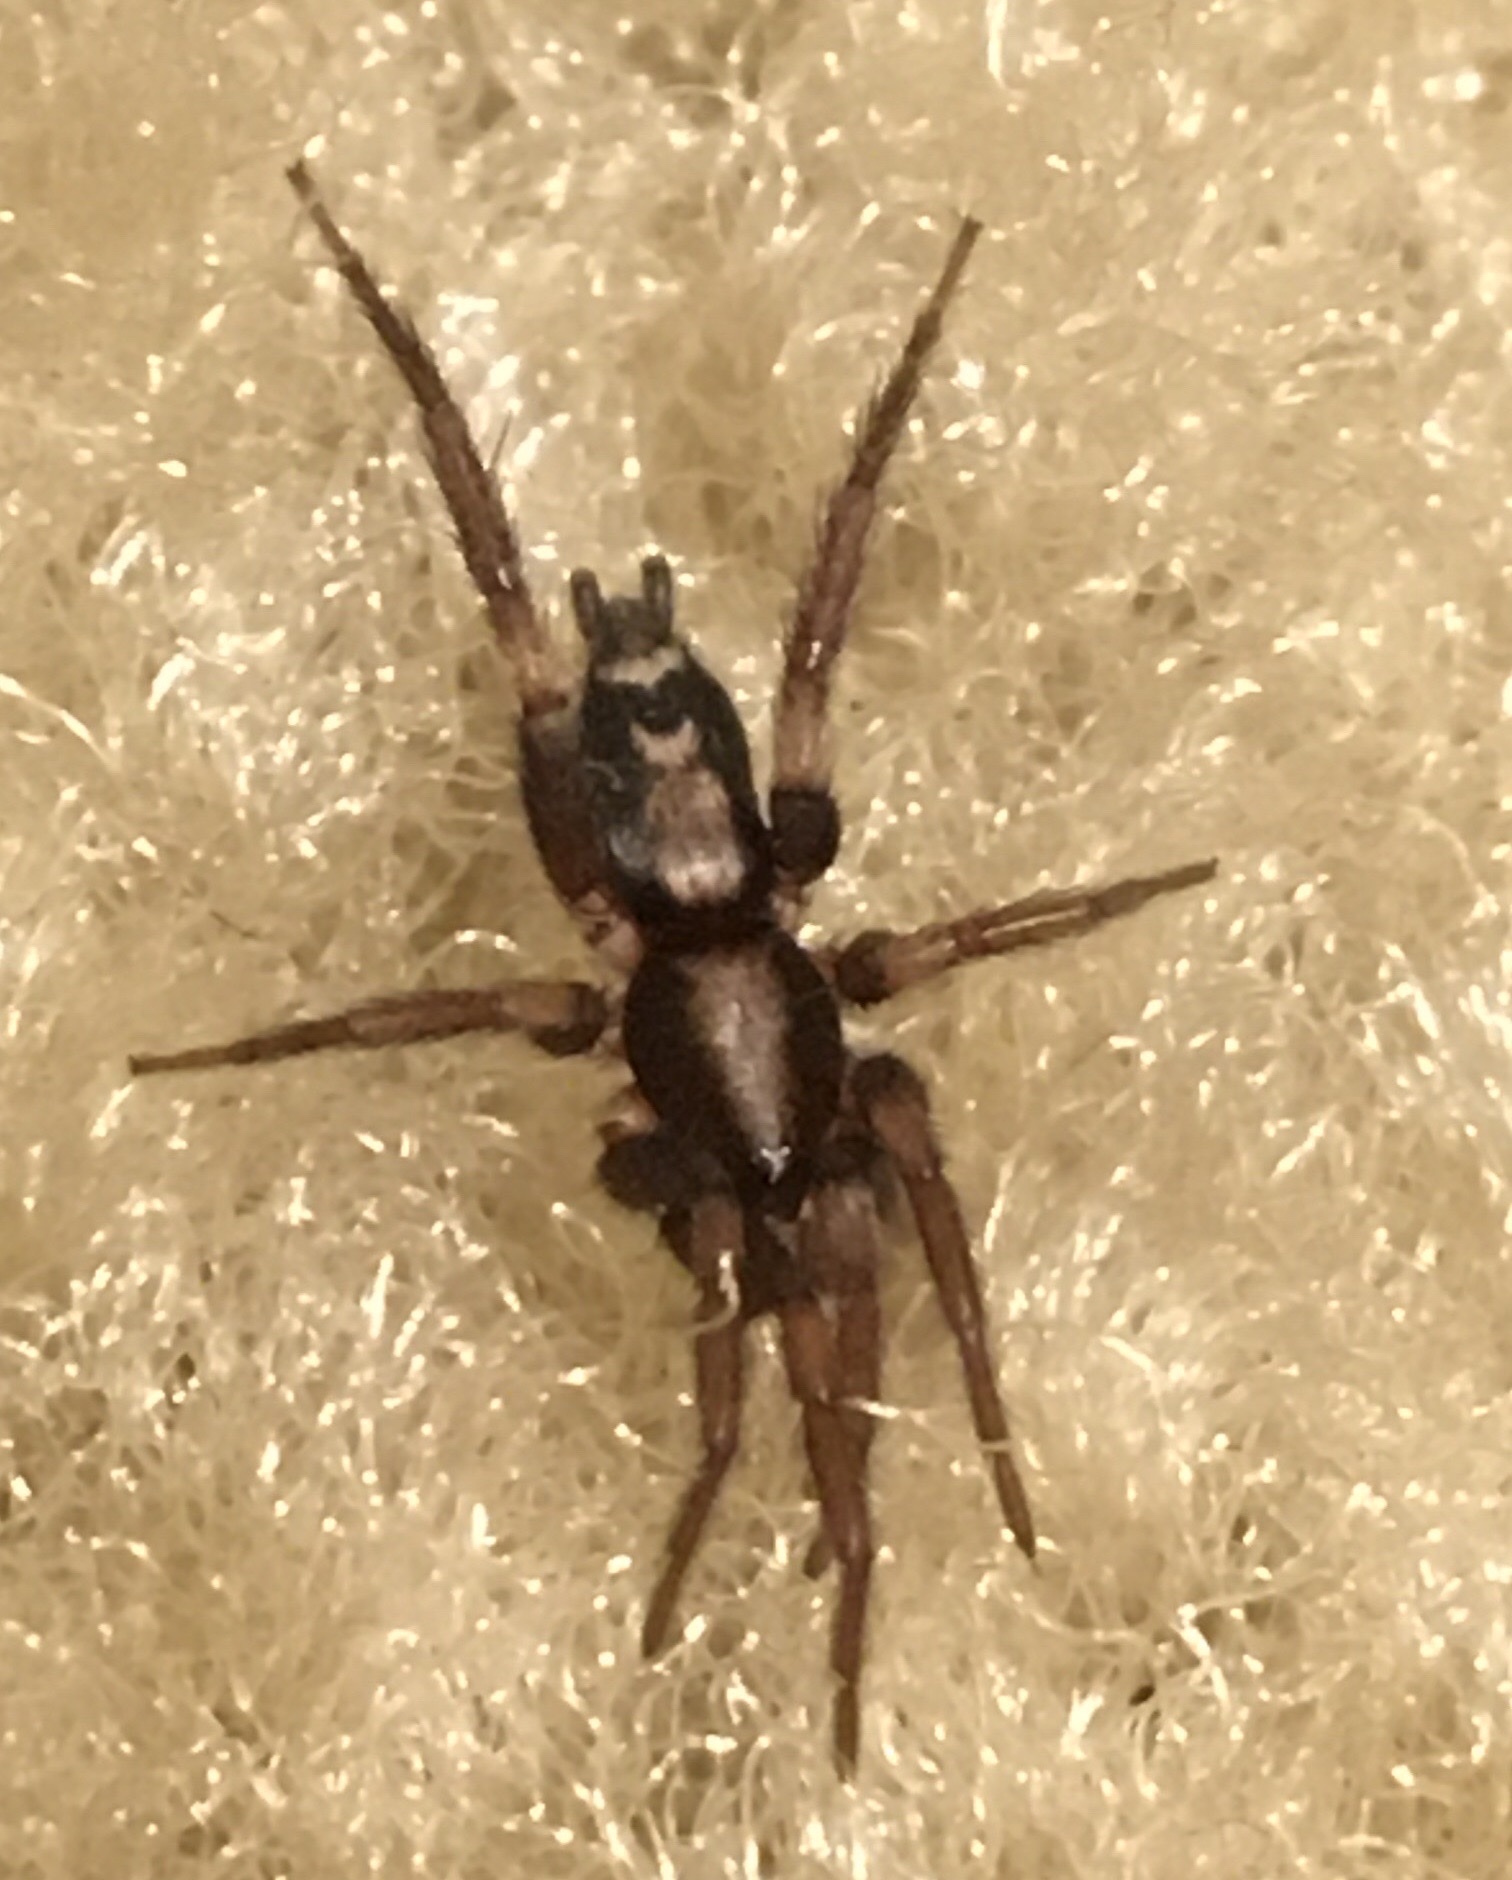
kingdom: Animalia
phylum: Arthropoda
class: Arachnida
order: Araneae
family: Gnaphosidae
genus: Herpyllus
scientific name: Herpyllus ecclesiasticus
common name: Eastern parson spider
